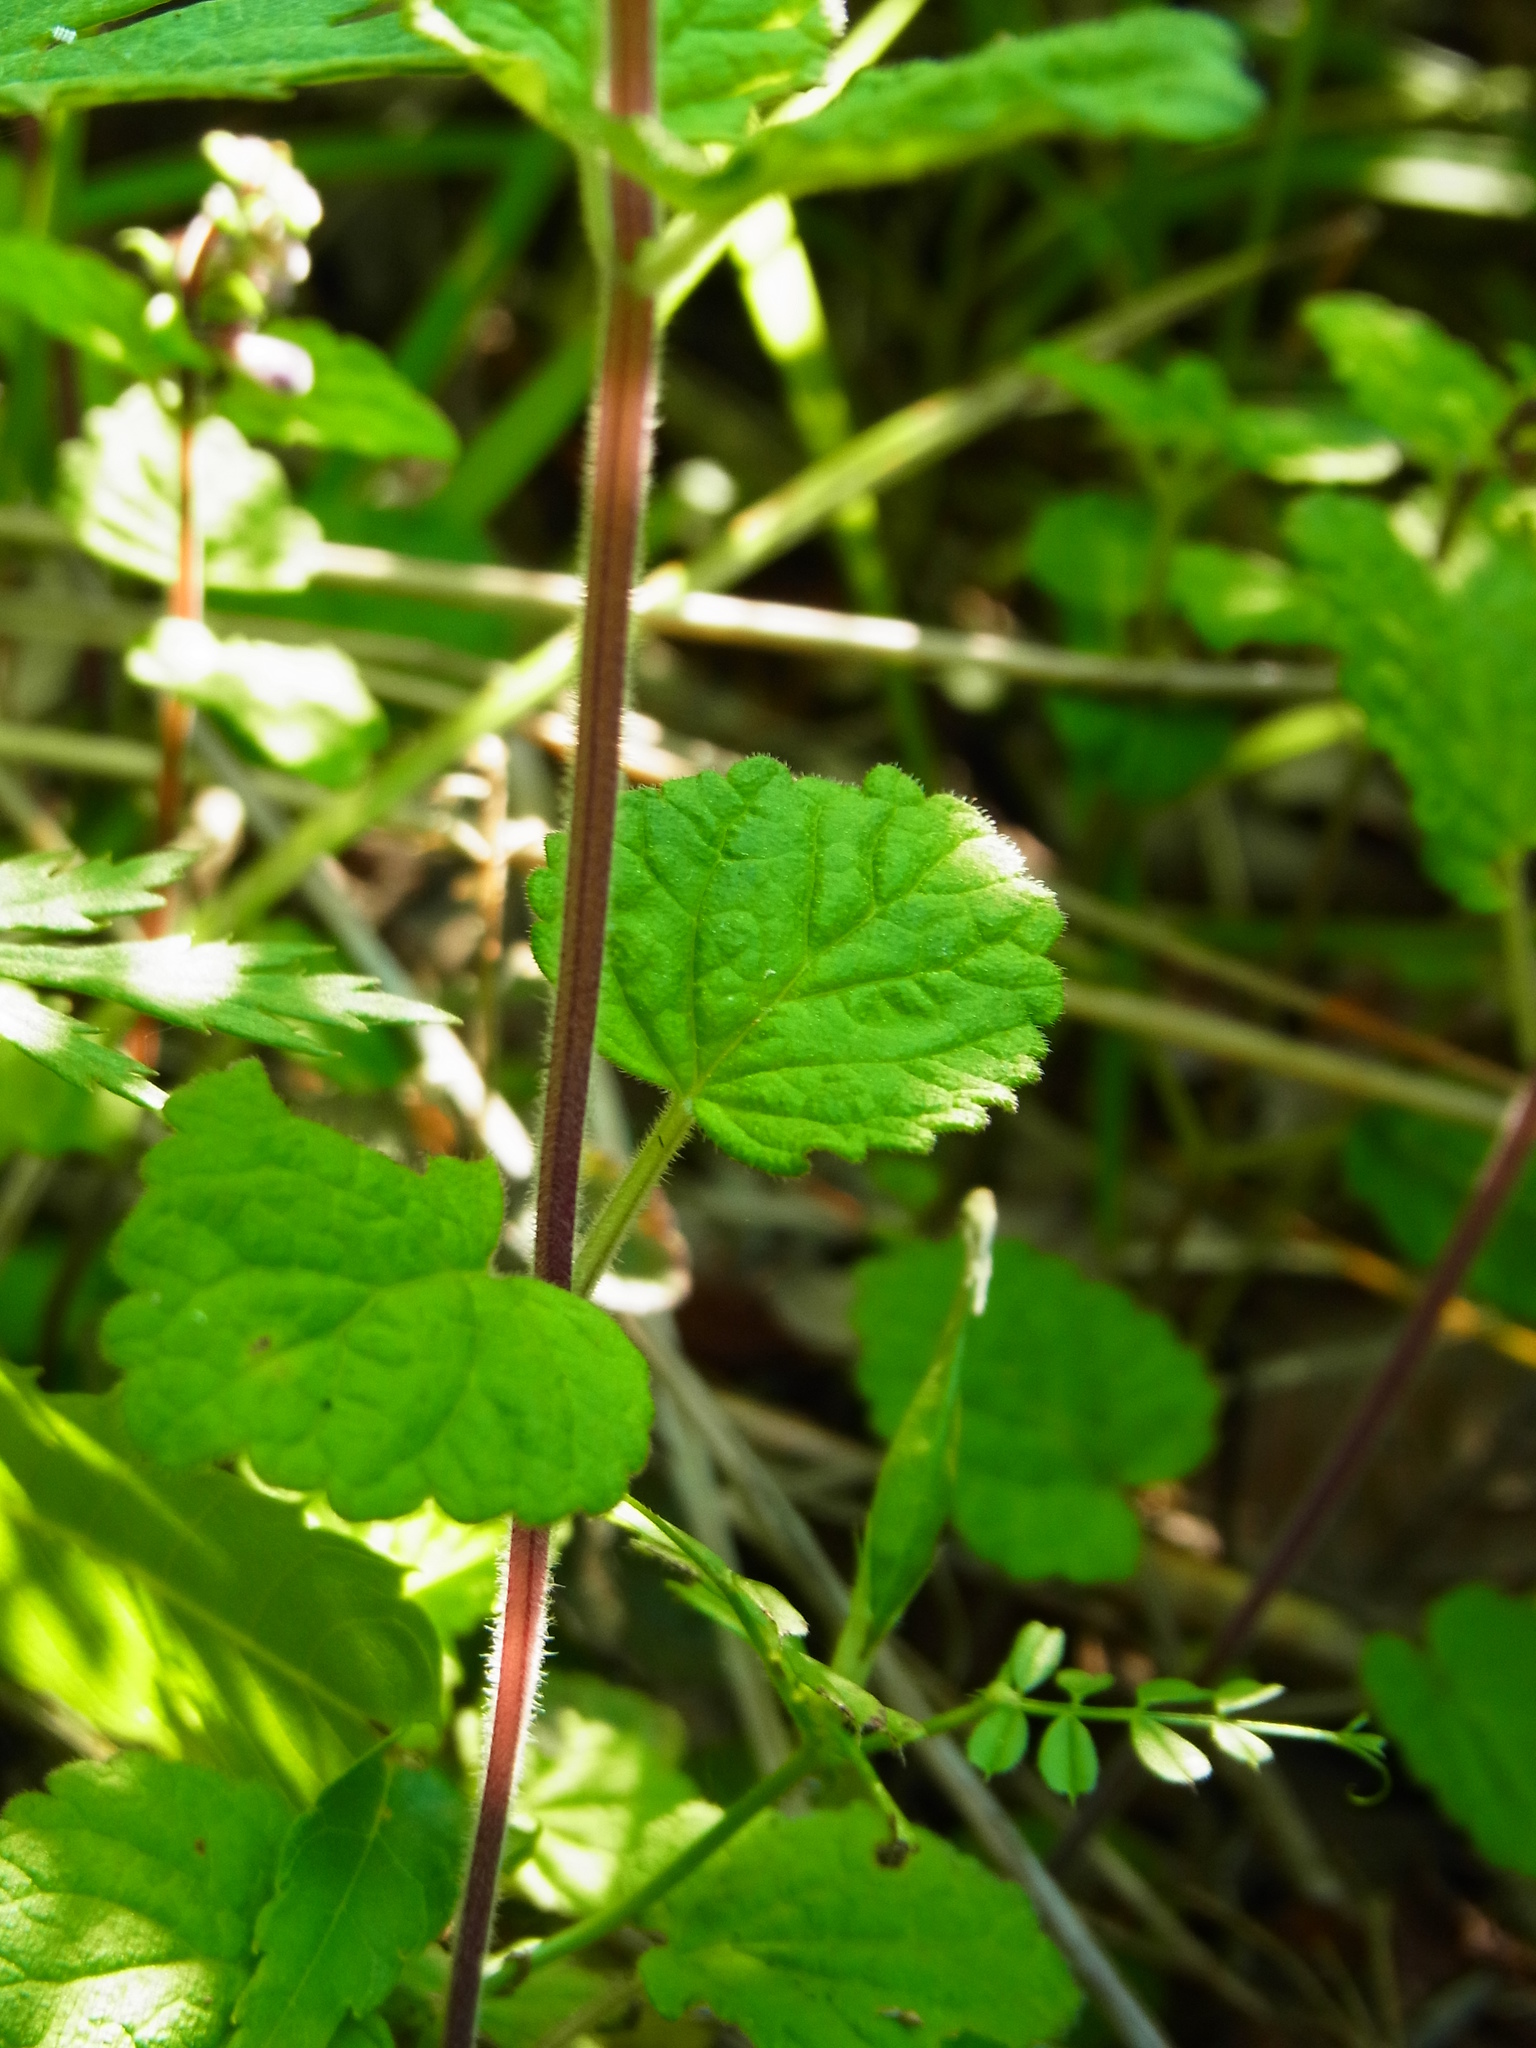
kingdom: Plantae
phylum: Tracheophyta
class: Magnoliopsida
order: Lamiales
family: Lamiaceae
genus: Scutellaria
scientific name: Scutellaria indica
